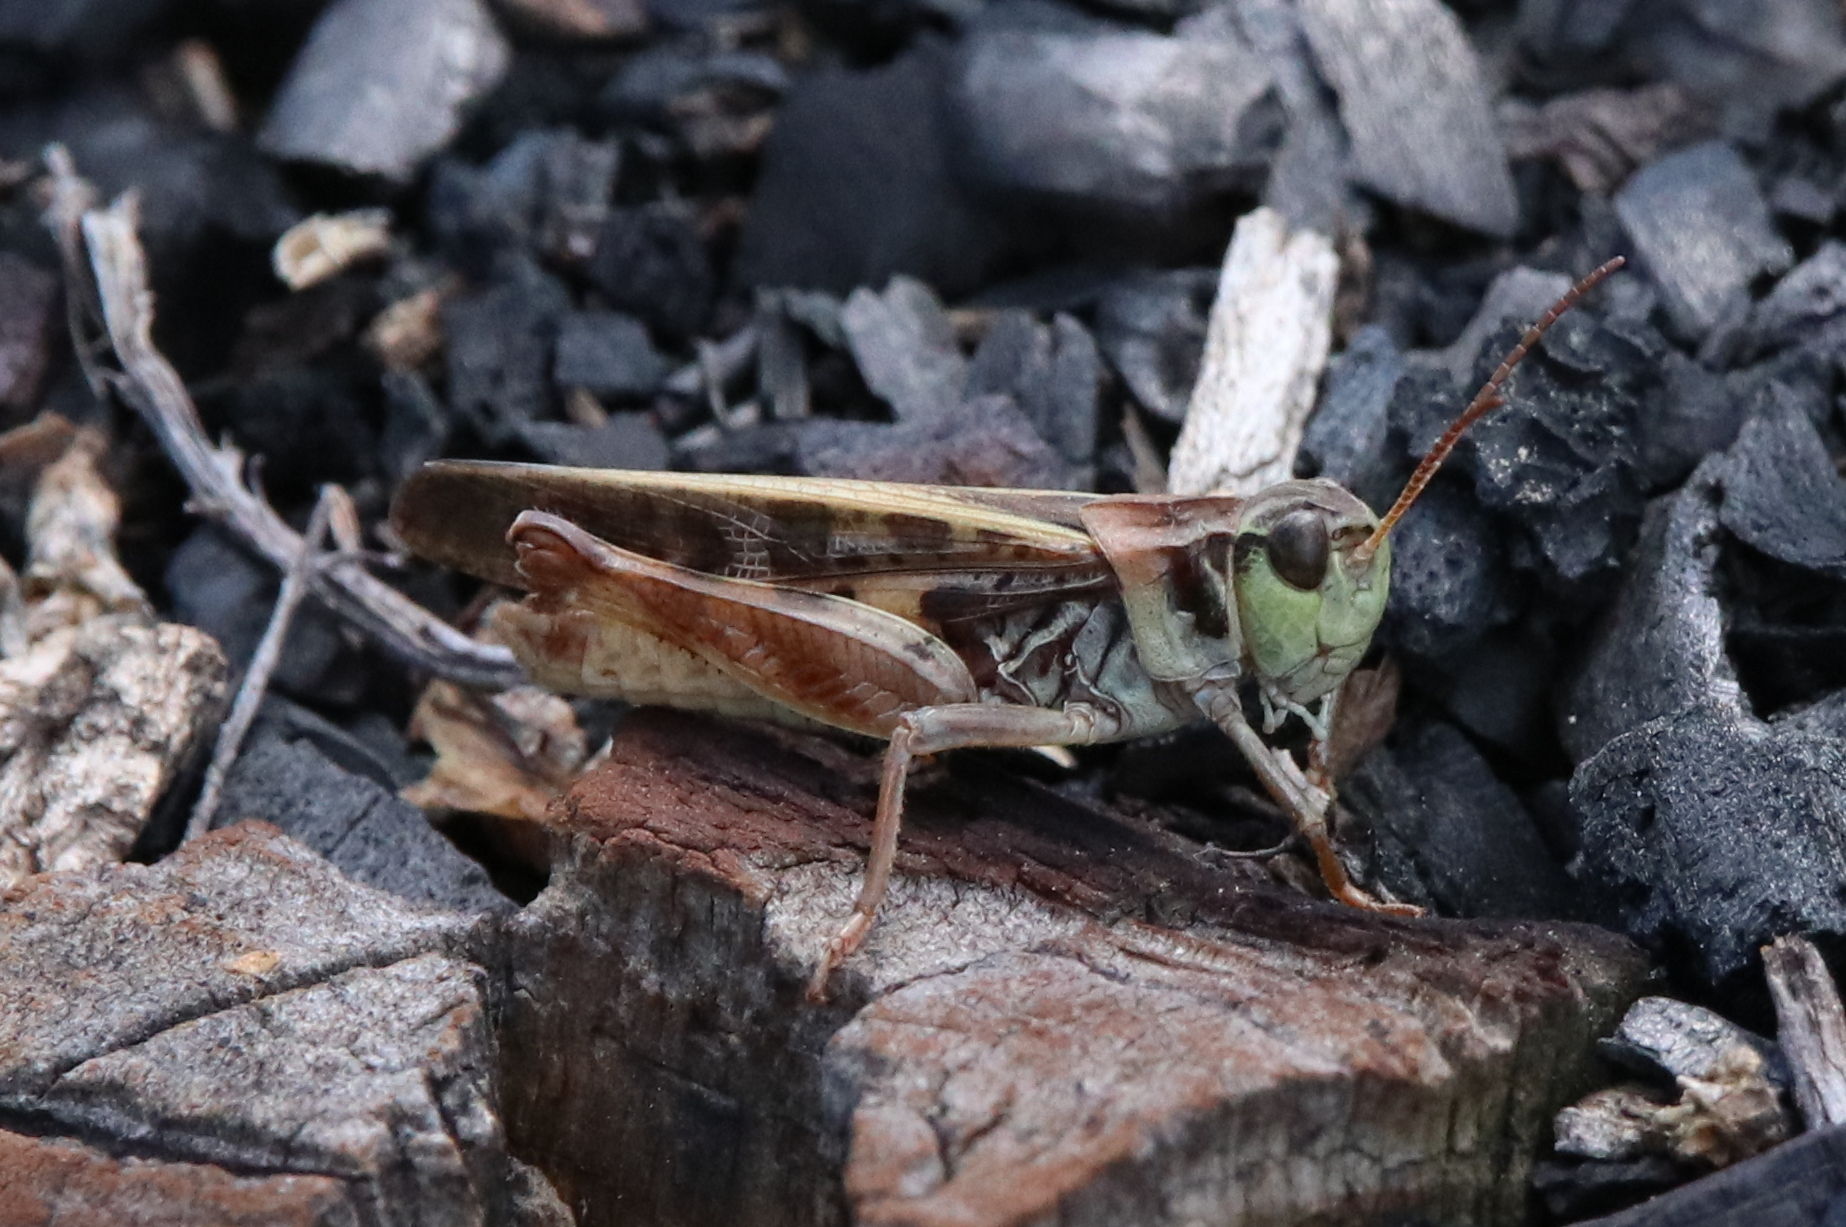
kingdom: Animalia
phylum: Arthropoda
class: Insecta
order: Orthoptera
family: Acrididae
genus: Camnula
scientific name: Camnula pellucida
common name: Clear-winged grasshopper
